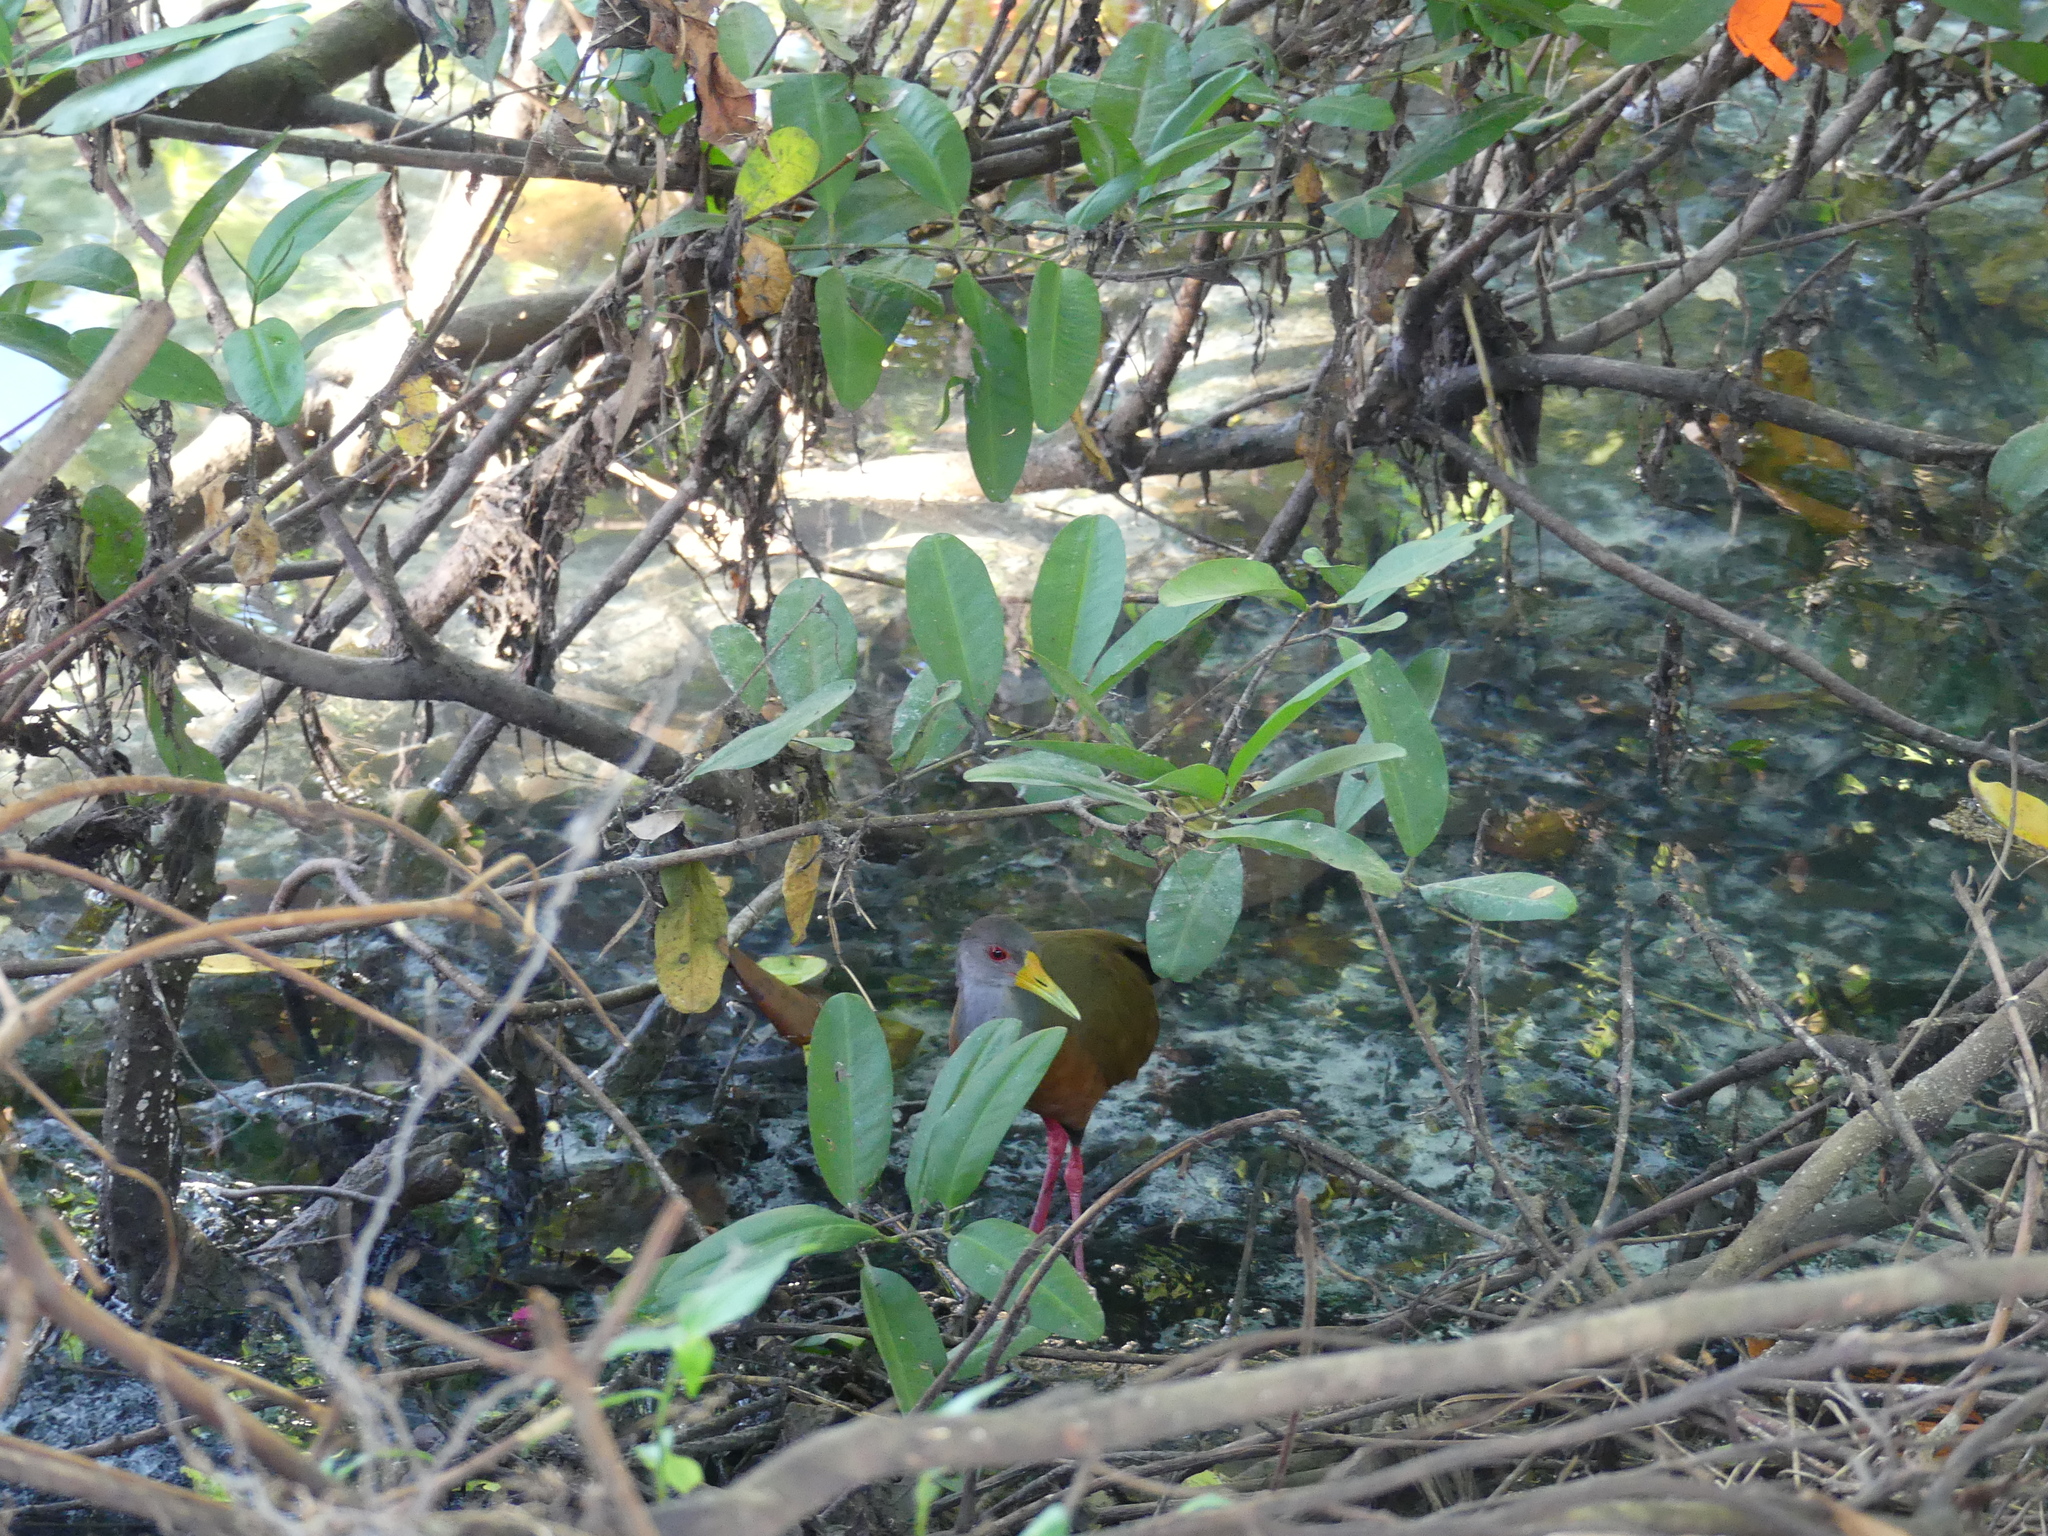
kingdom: Animalia
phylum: Chordata
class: Aves
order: Gruiformes
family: Rallidae
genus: Aramides
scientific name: Aramides cajanea
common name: Gray-necked wood-rail
